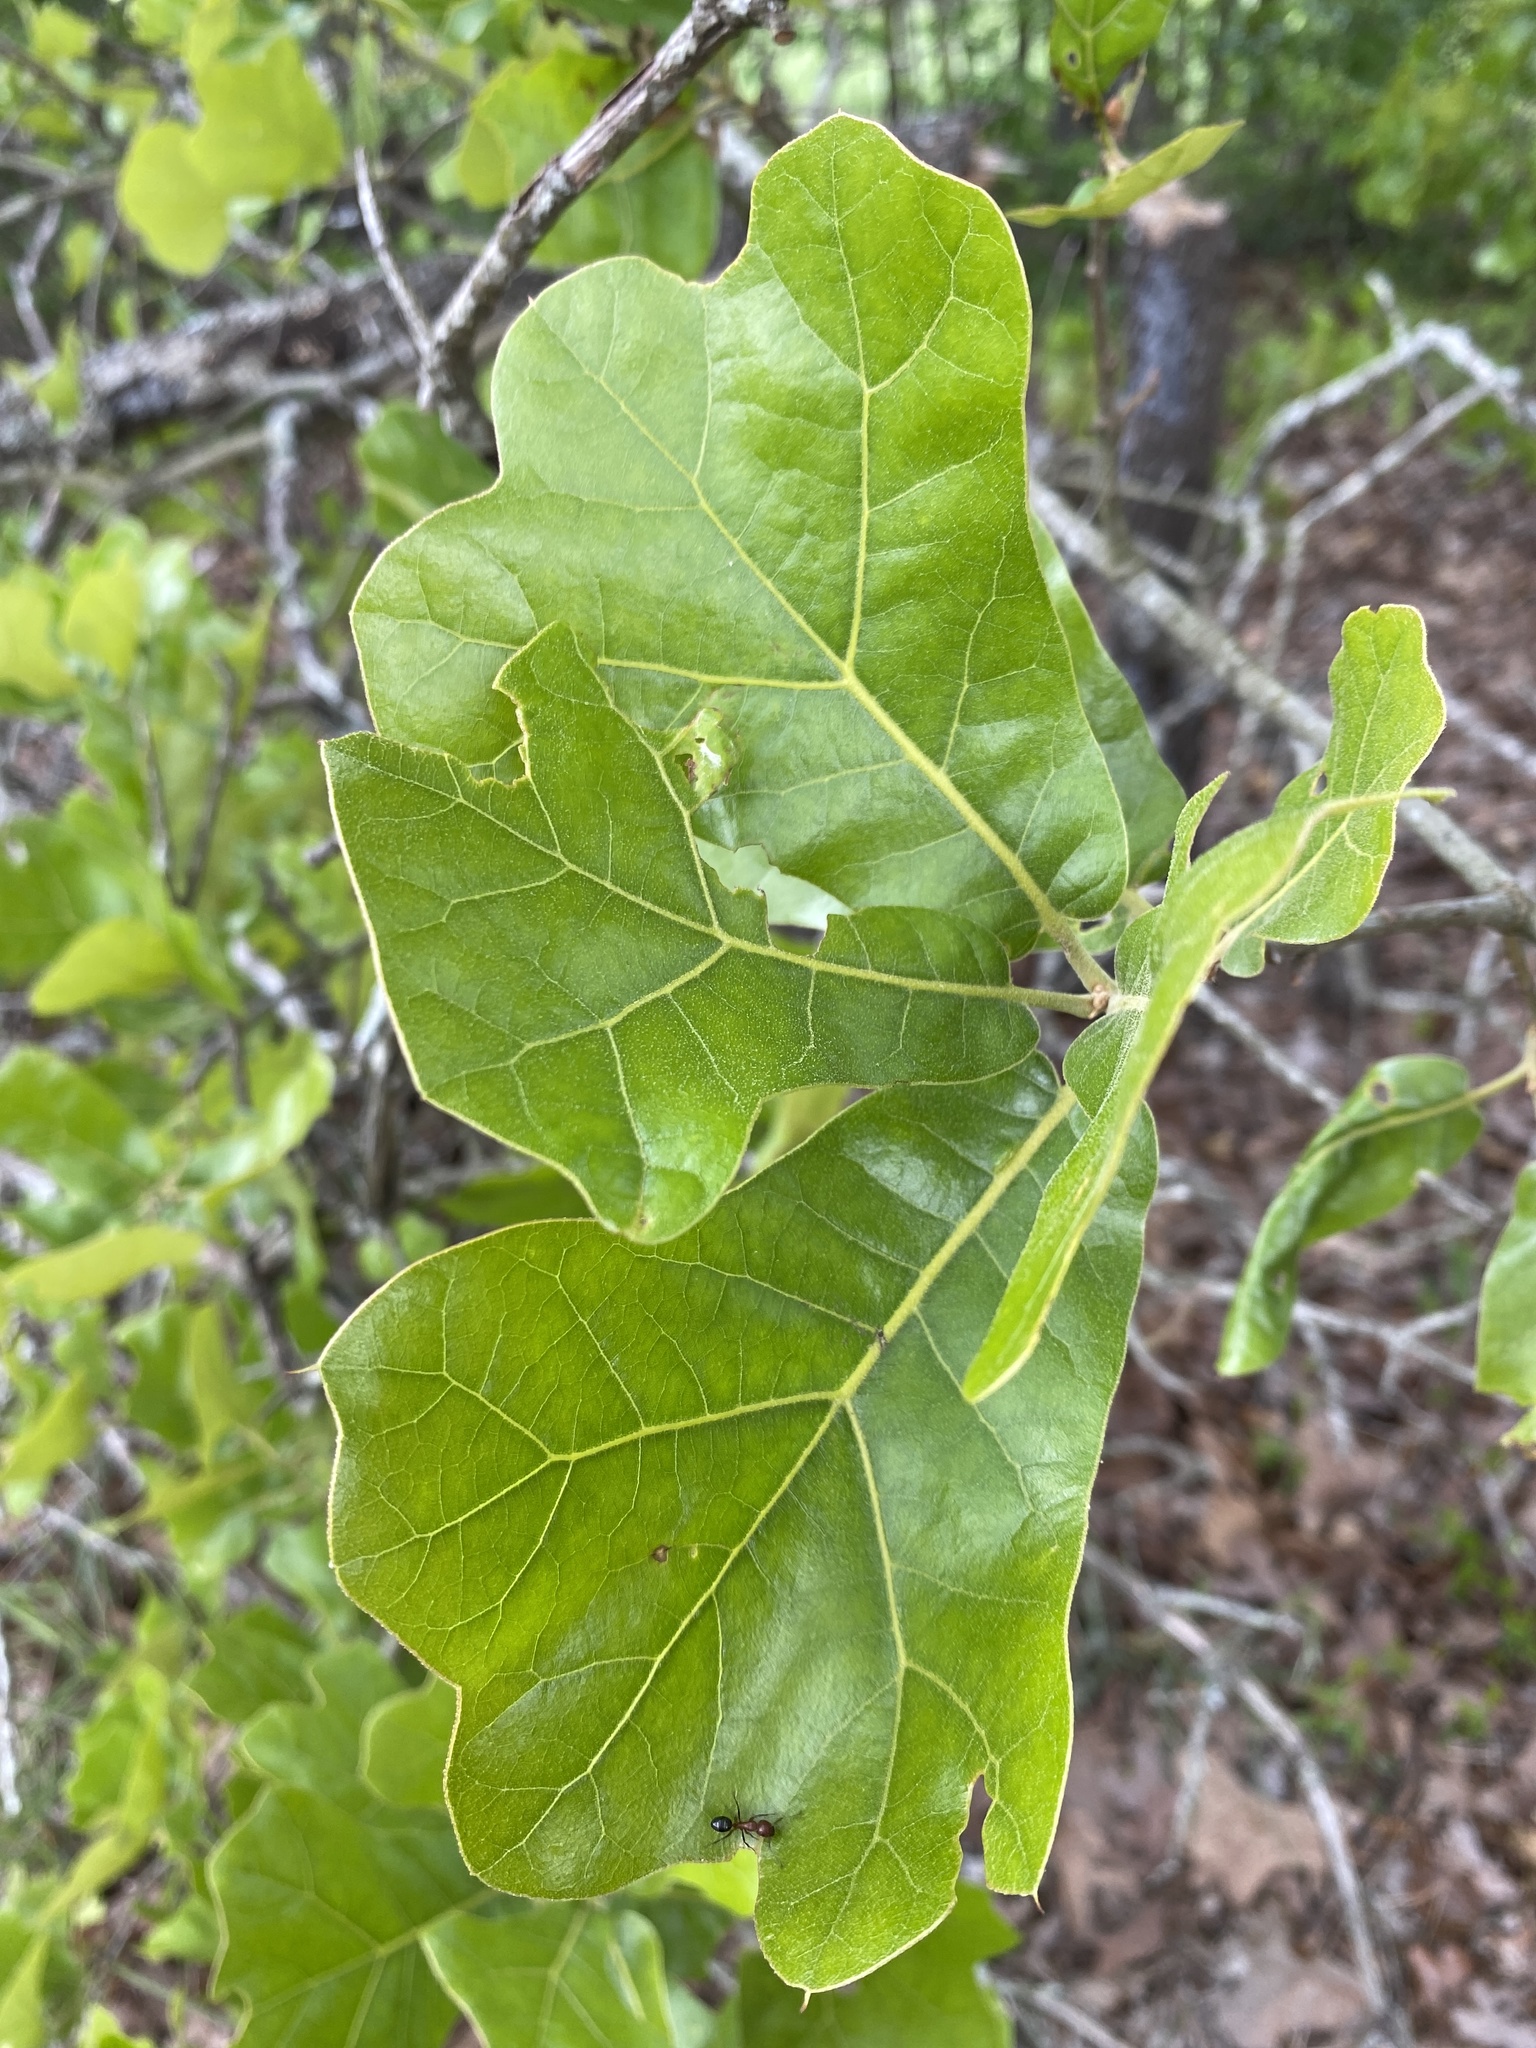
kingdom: Plantae
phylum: Tracheophyta
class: Magnoliopsida
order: Fagales
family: Fagaceae
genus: Quercus
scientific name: Quercus marilandica
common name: Blackjack oak
